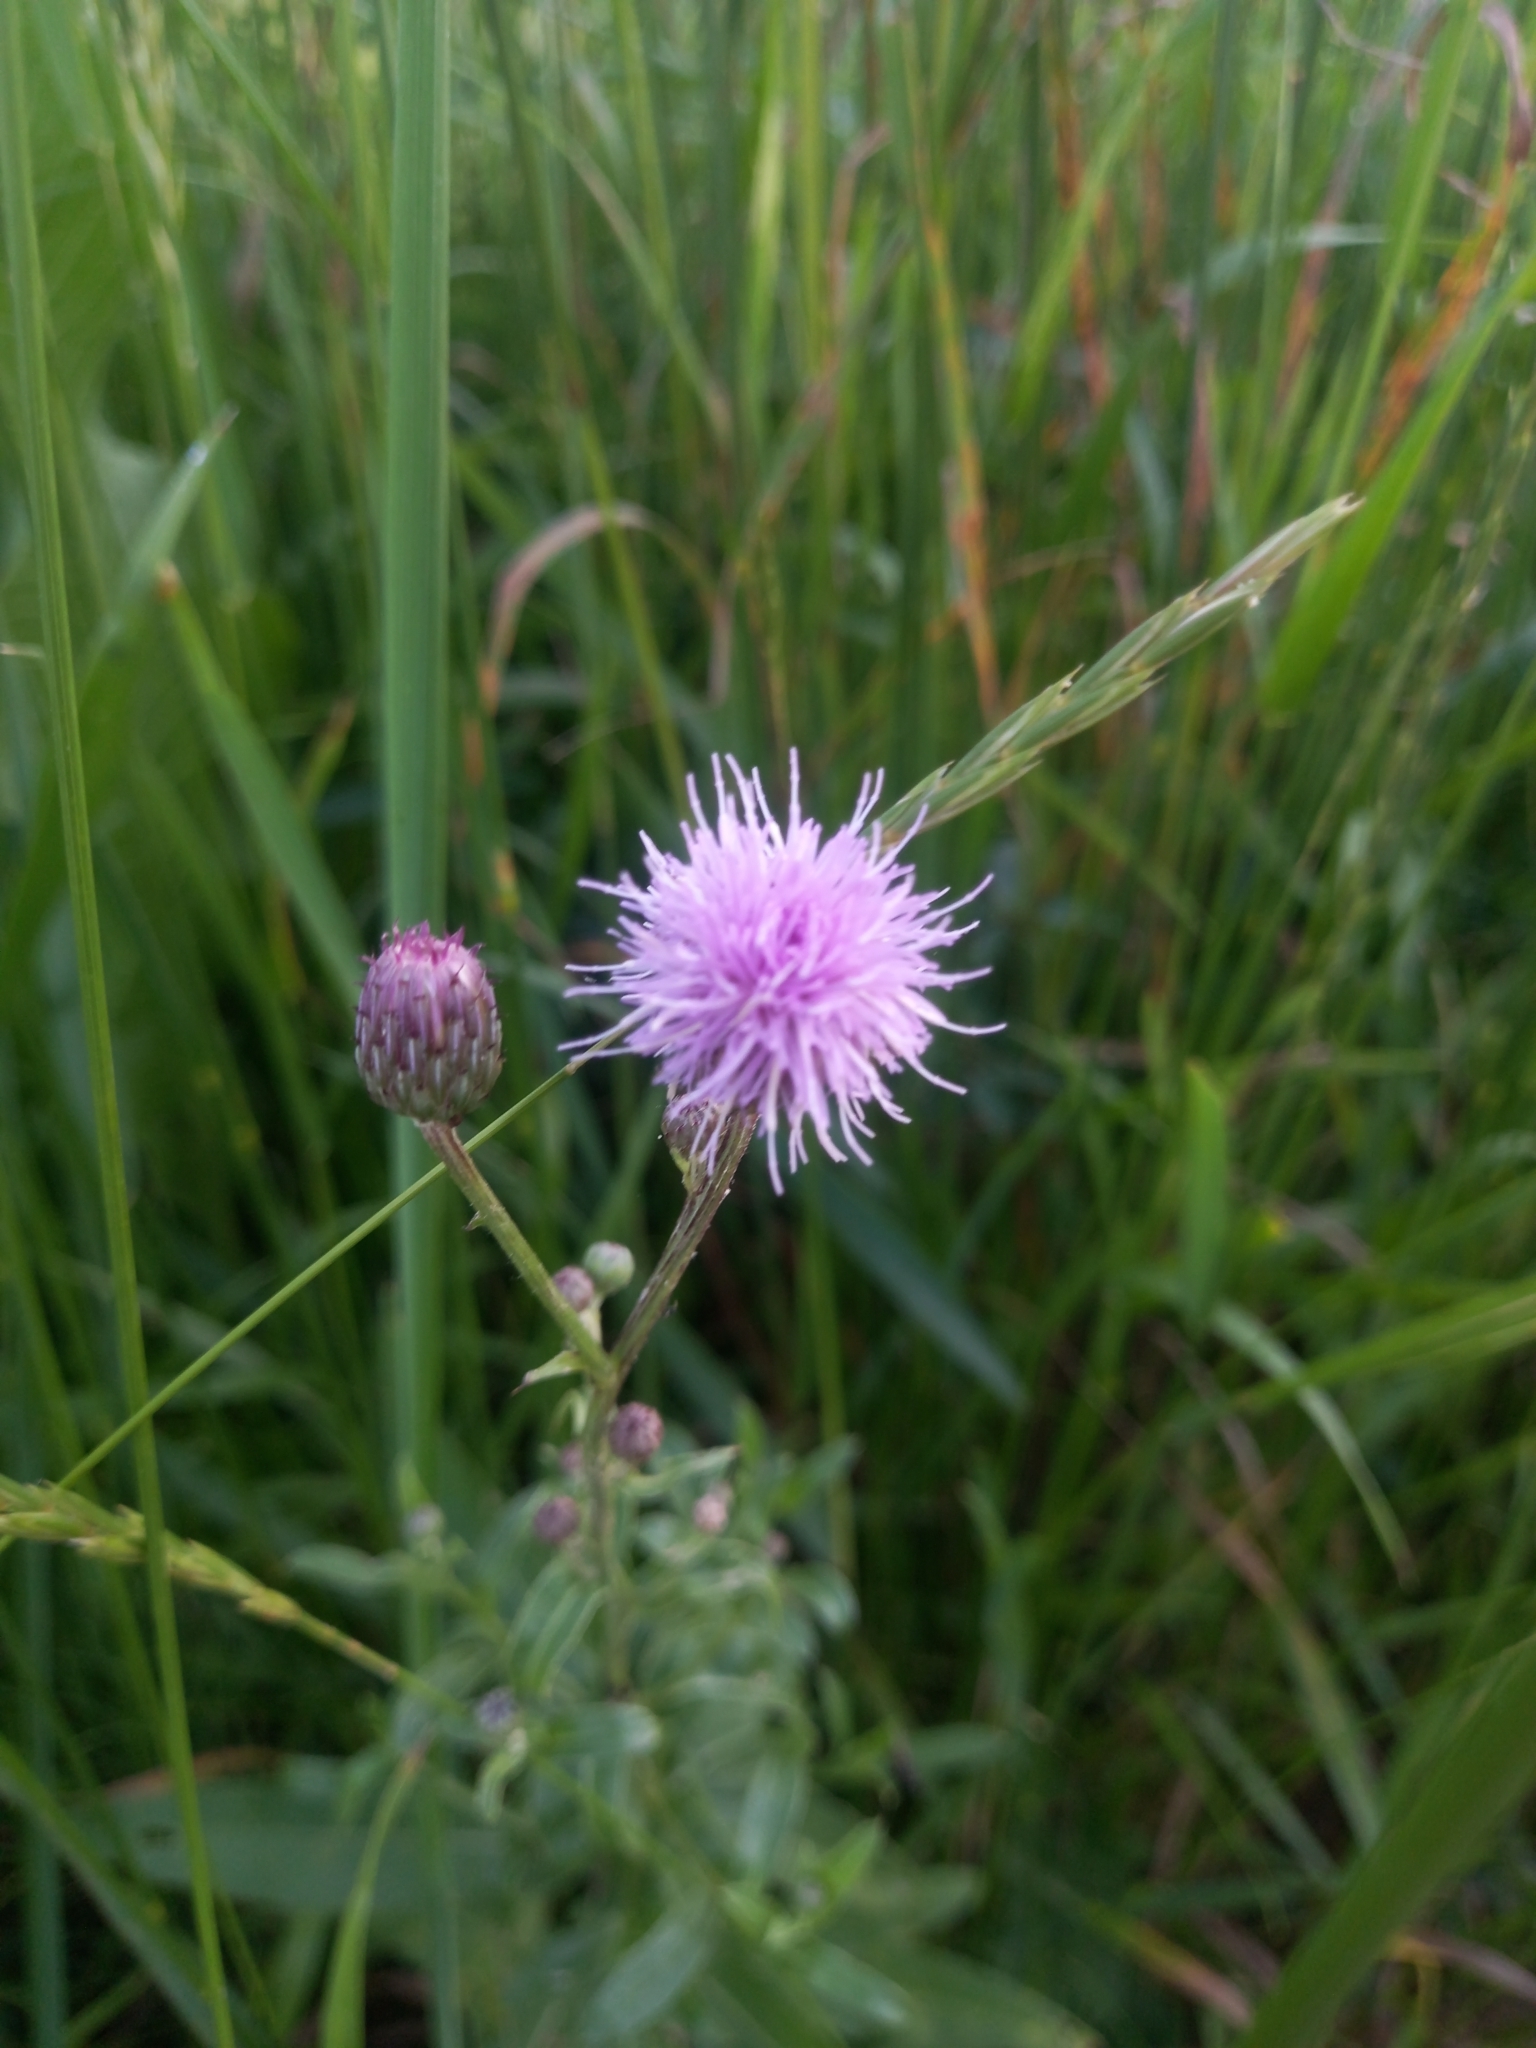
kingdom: Plantae
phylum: Tracheophyta
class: Magnoliopsida
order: Asterales
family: Asteraceae
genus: Cirsium
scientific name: Cirsium arvense
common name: Creeping thistle
